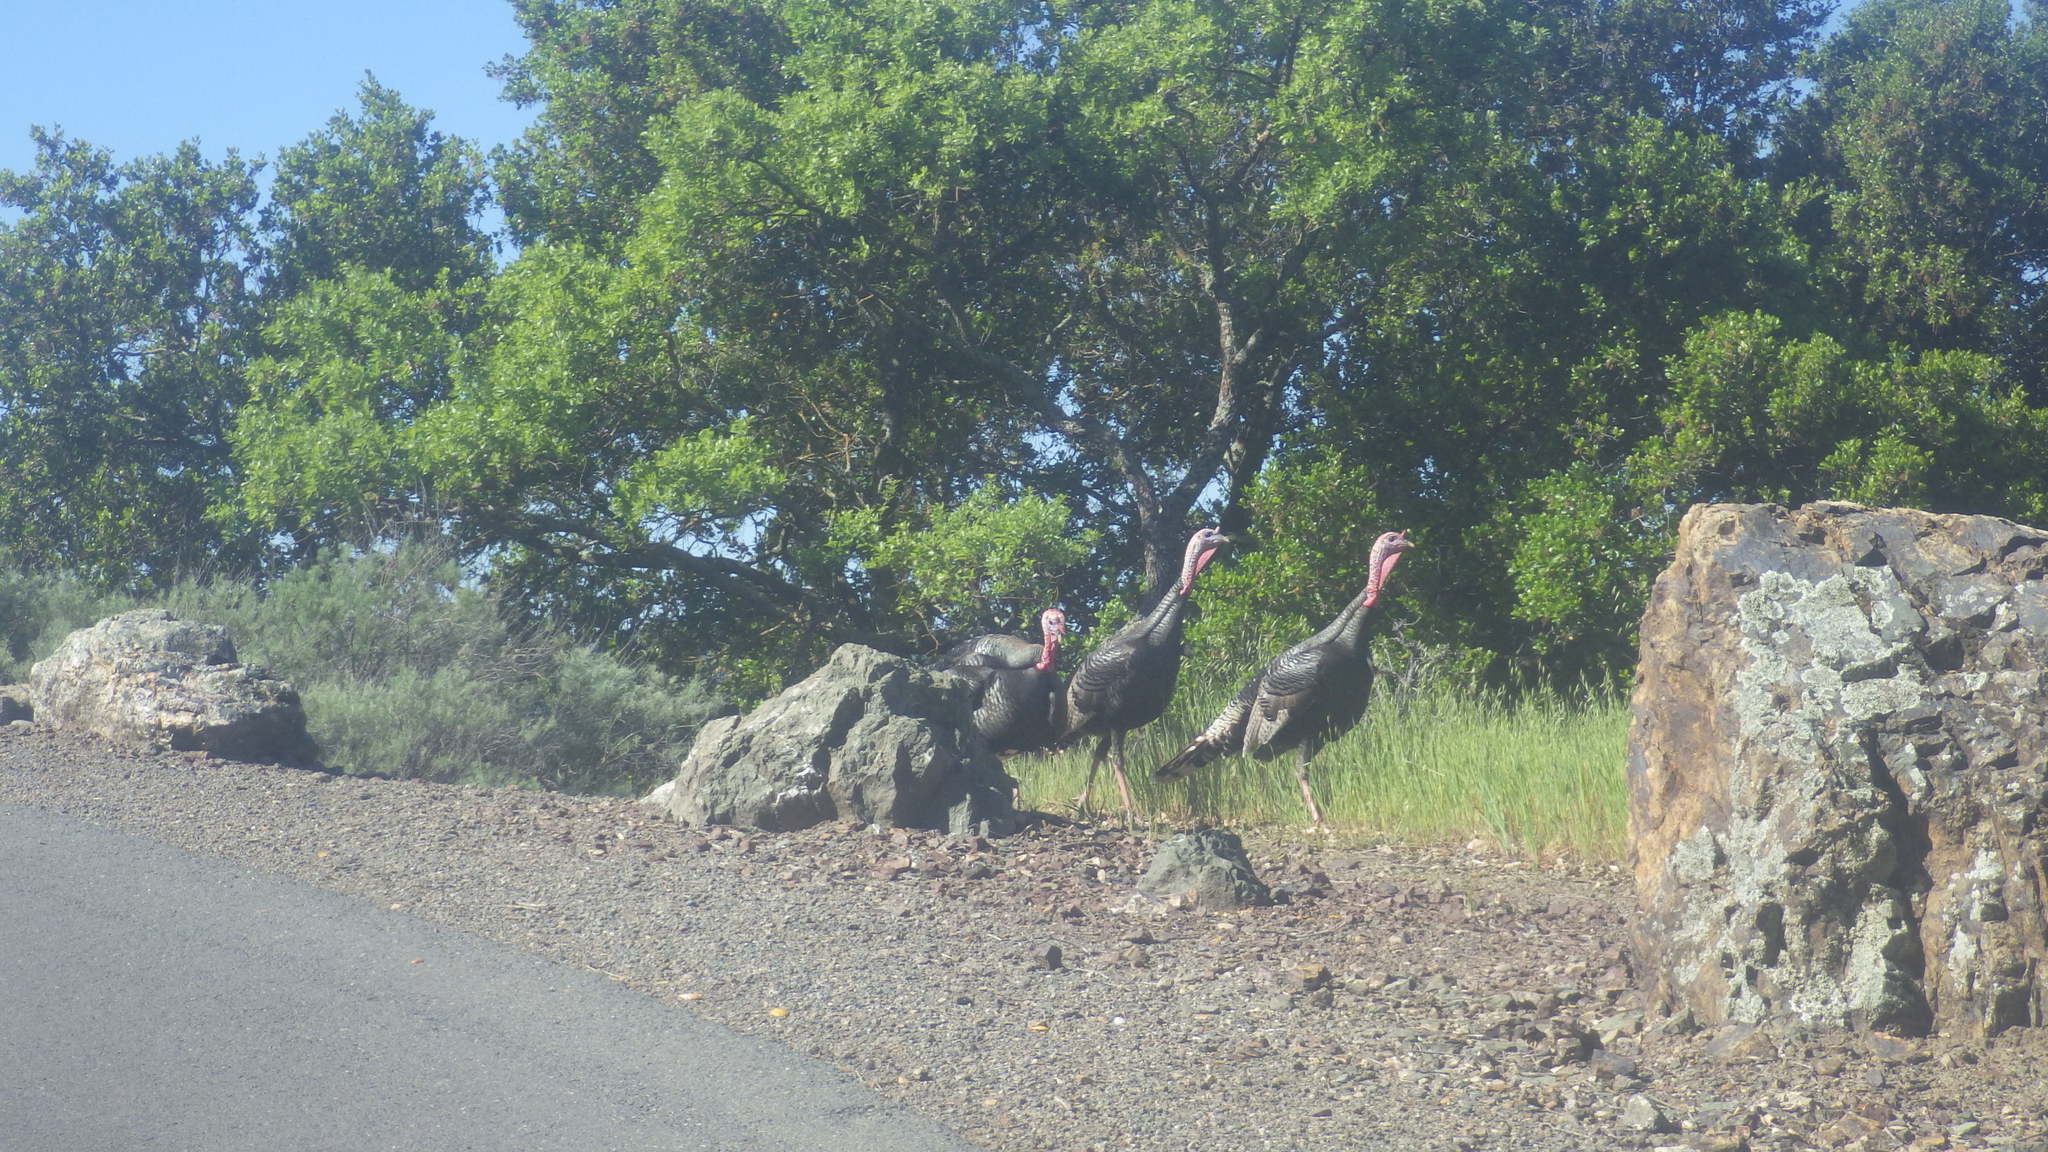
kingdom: Animalia
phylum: Chordata
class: Aves
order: Galliformes
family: Phasianidae
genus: Meleagris
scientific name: Meleagris gallopavo
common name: Wild turkey
